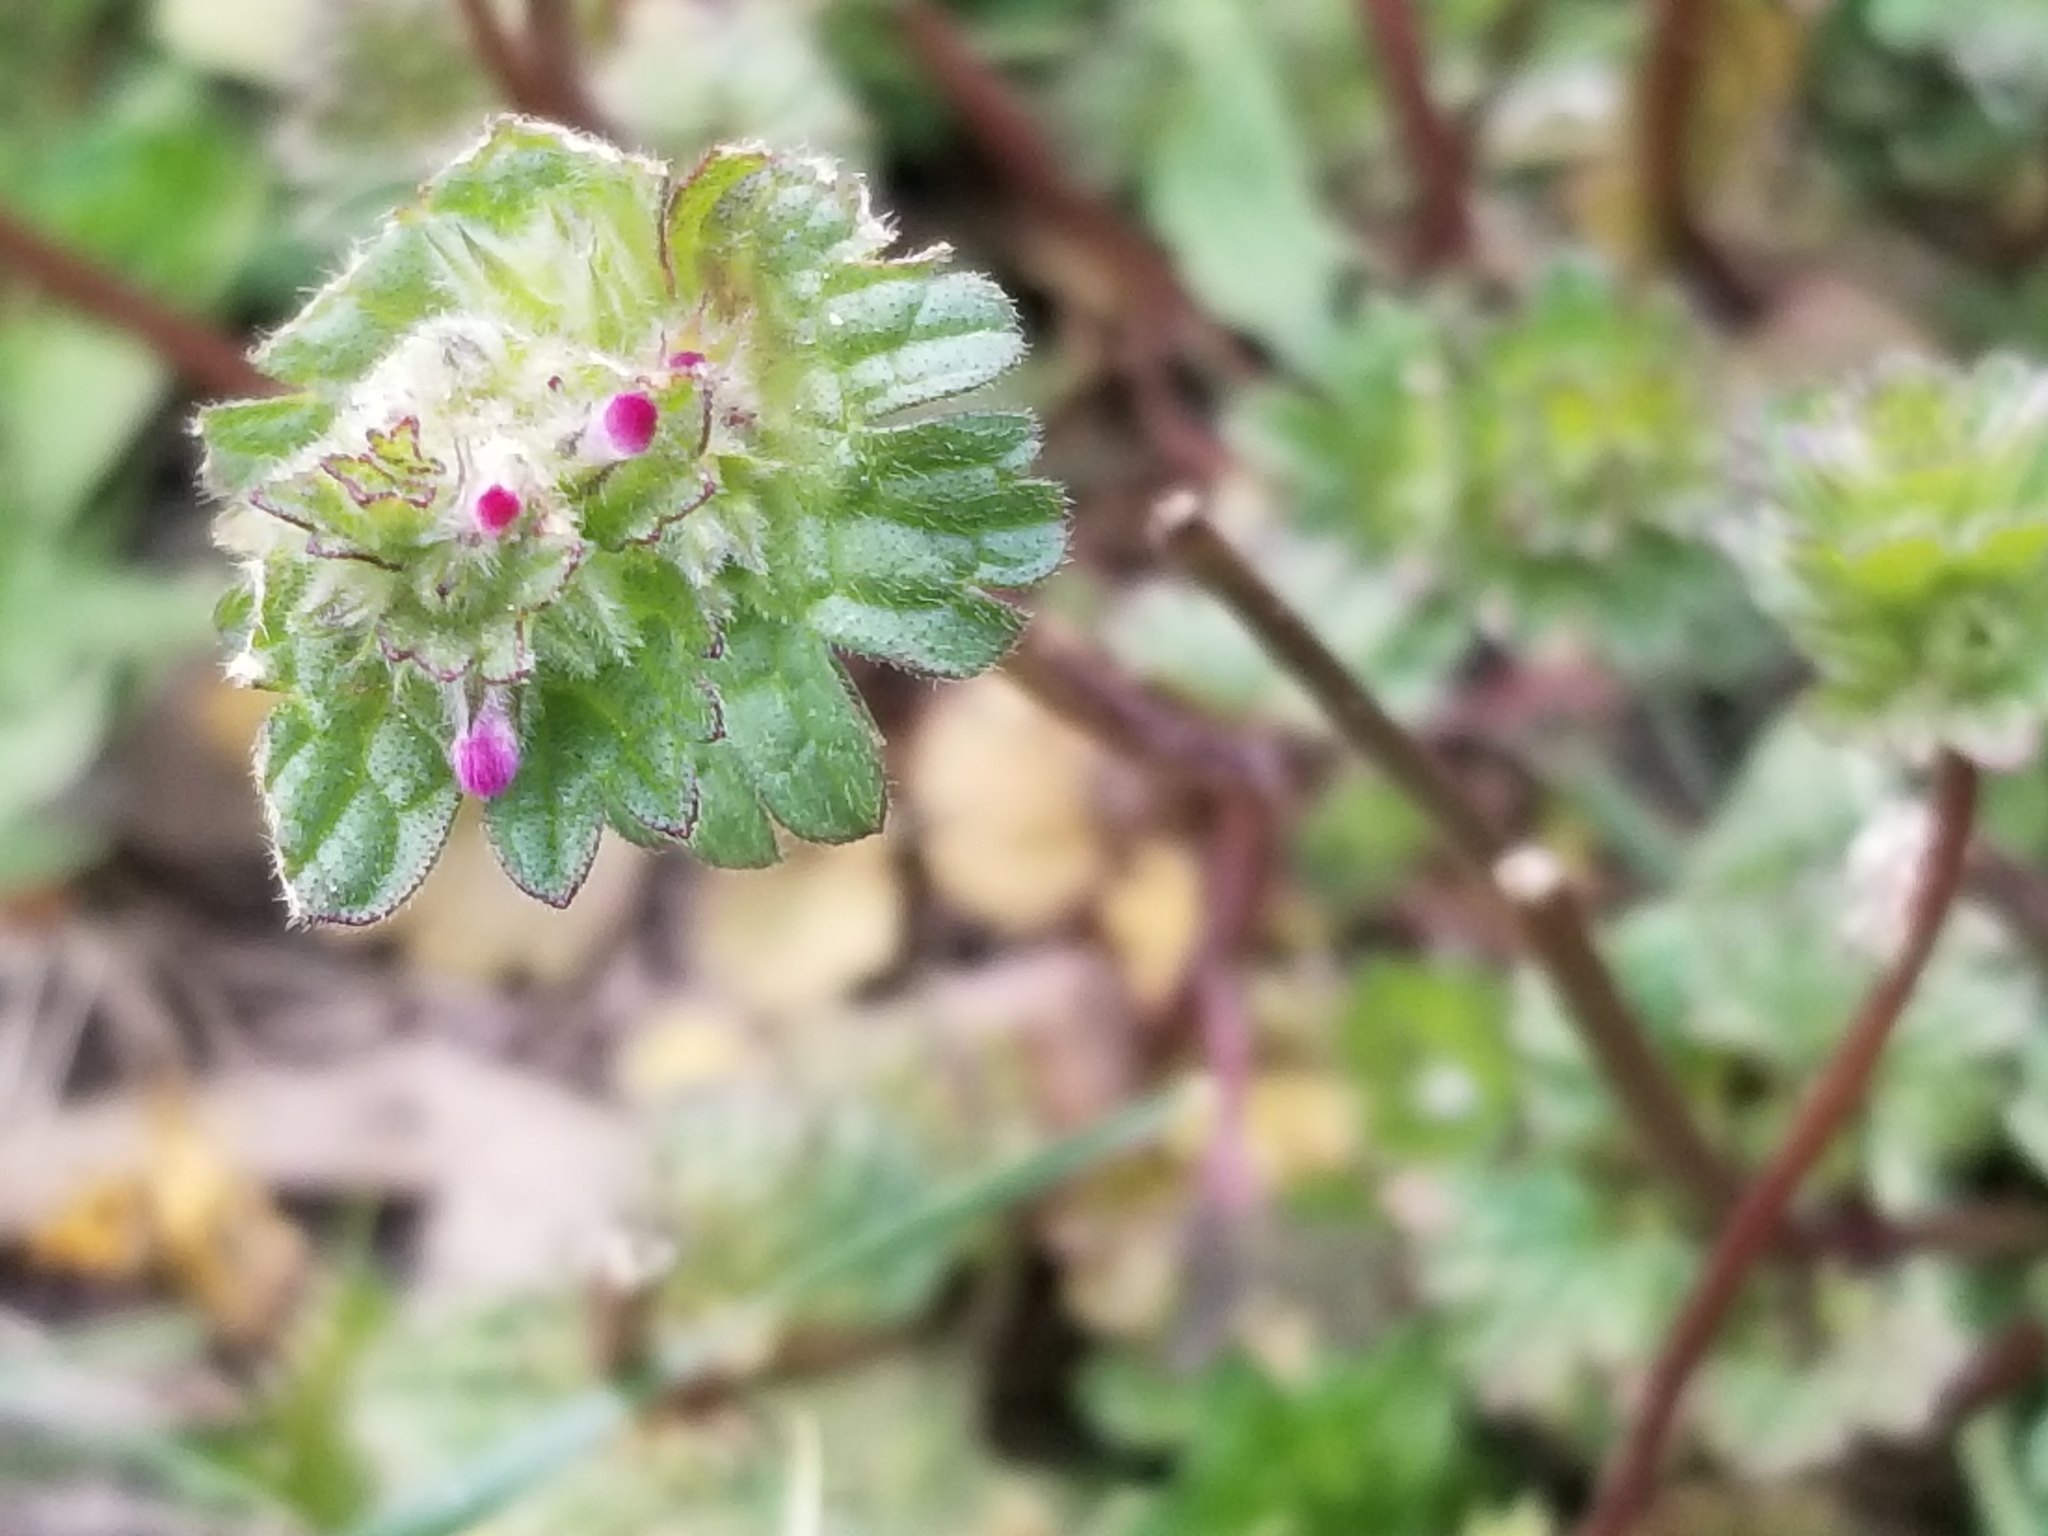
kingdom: Plantae
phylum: Tracheophyta
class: Magnoliopsida
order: Lamiales
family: Lamiaceae
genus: Lamium
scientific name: Lamium amplexicaule
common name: Henbit dead-nettle
